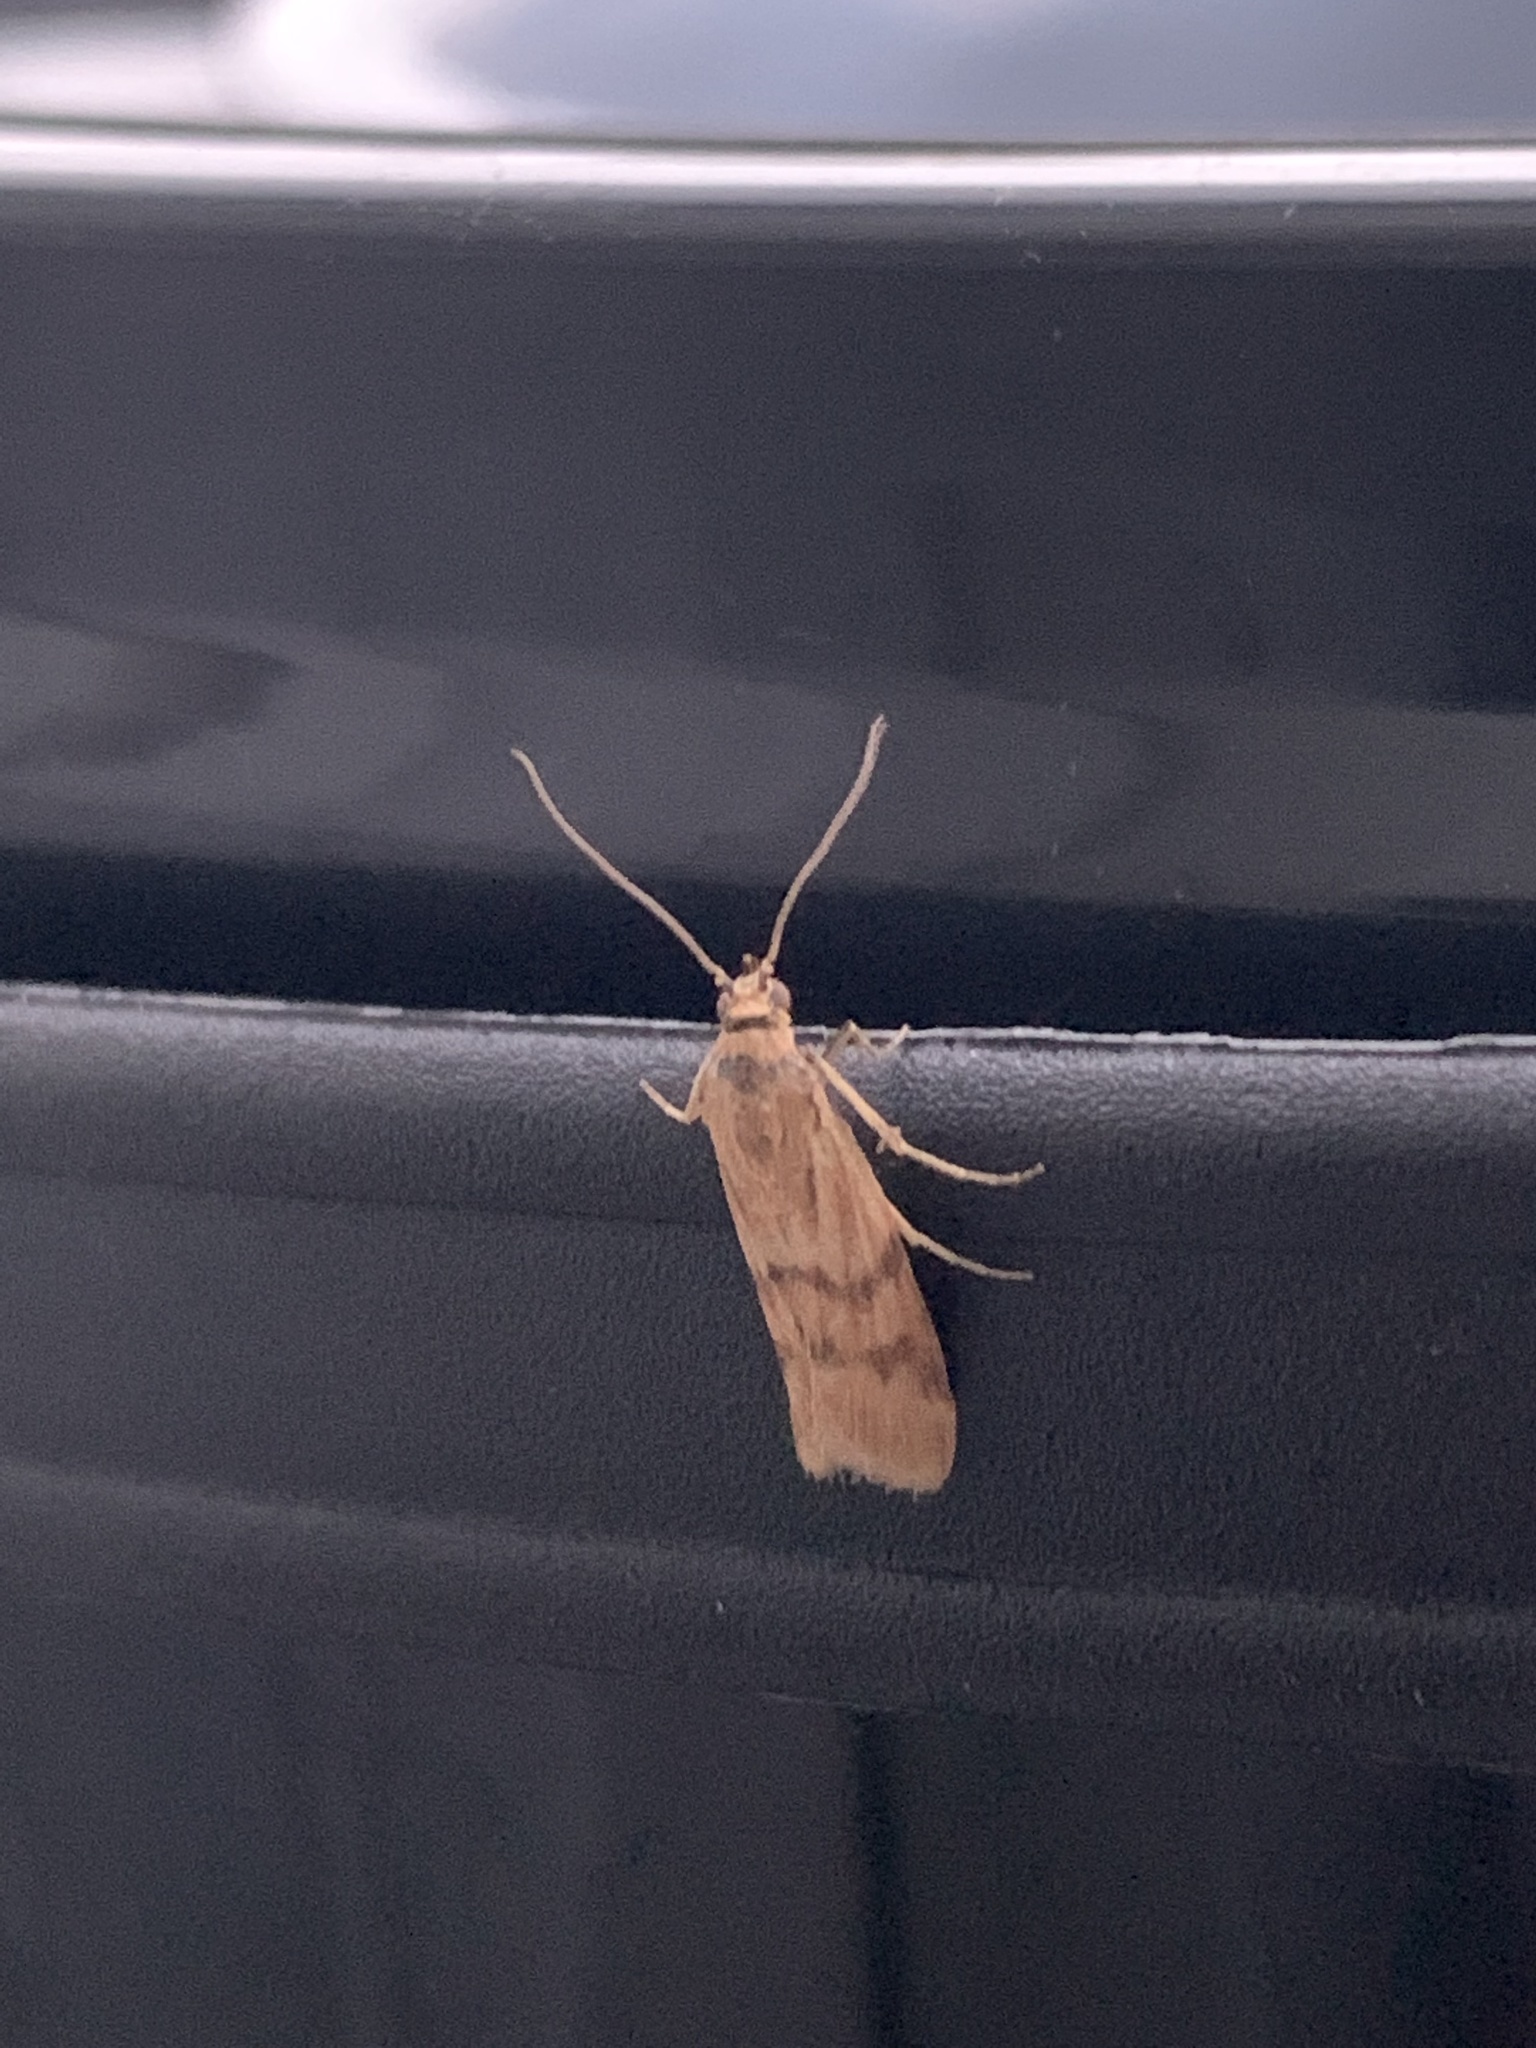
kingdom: Animalia
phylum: Arthropoda
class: Insecta
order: Lepidoptera
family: Pyralidae
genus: Homoeosoma
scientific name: Homoeosoma sinuella
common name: Twin-barred knot-horn
